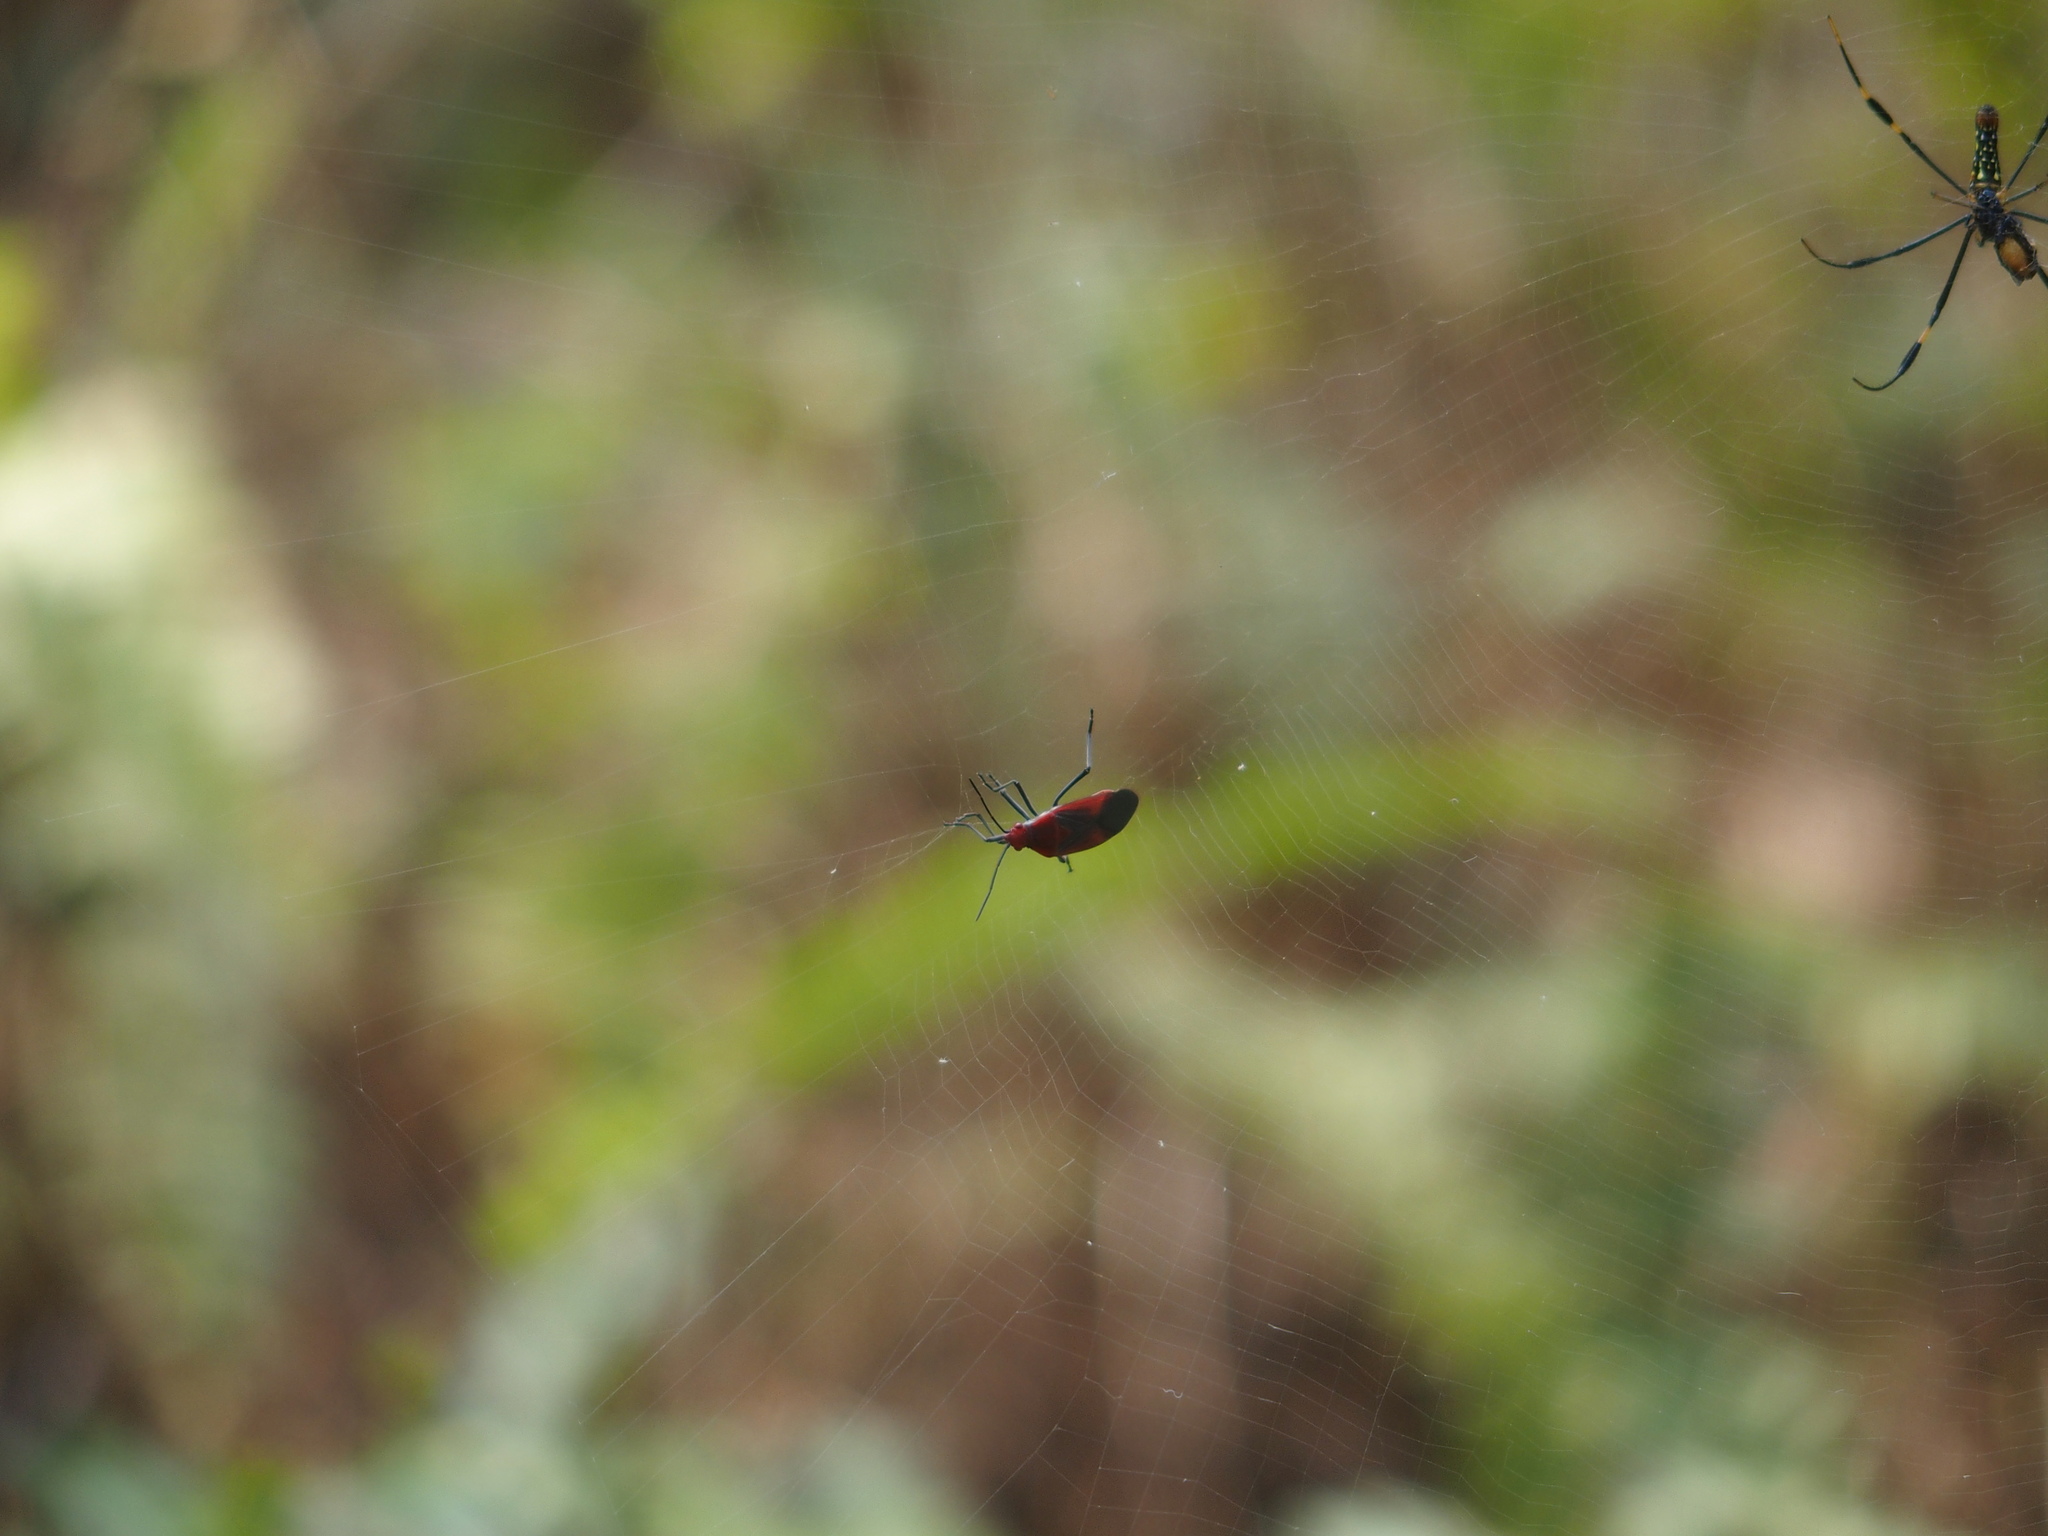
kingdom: Animalia
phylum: Arthropoda
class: Insecta
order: Hemiptera
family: Rhopalidae
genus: Leptocoris
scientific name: Leptocoris vicinus
